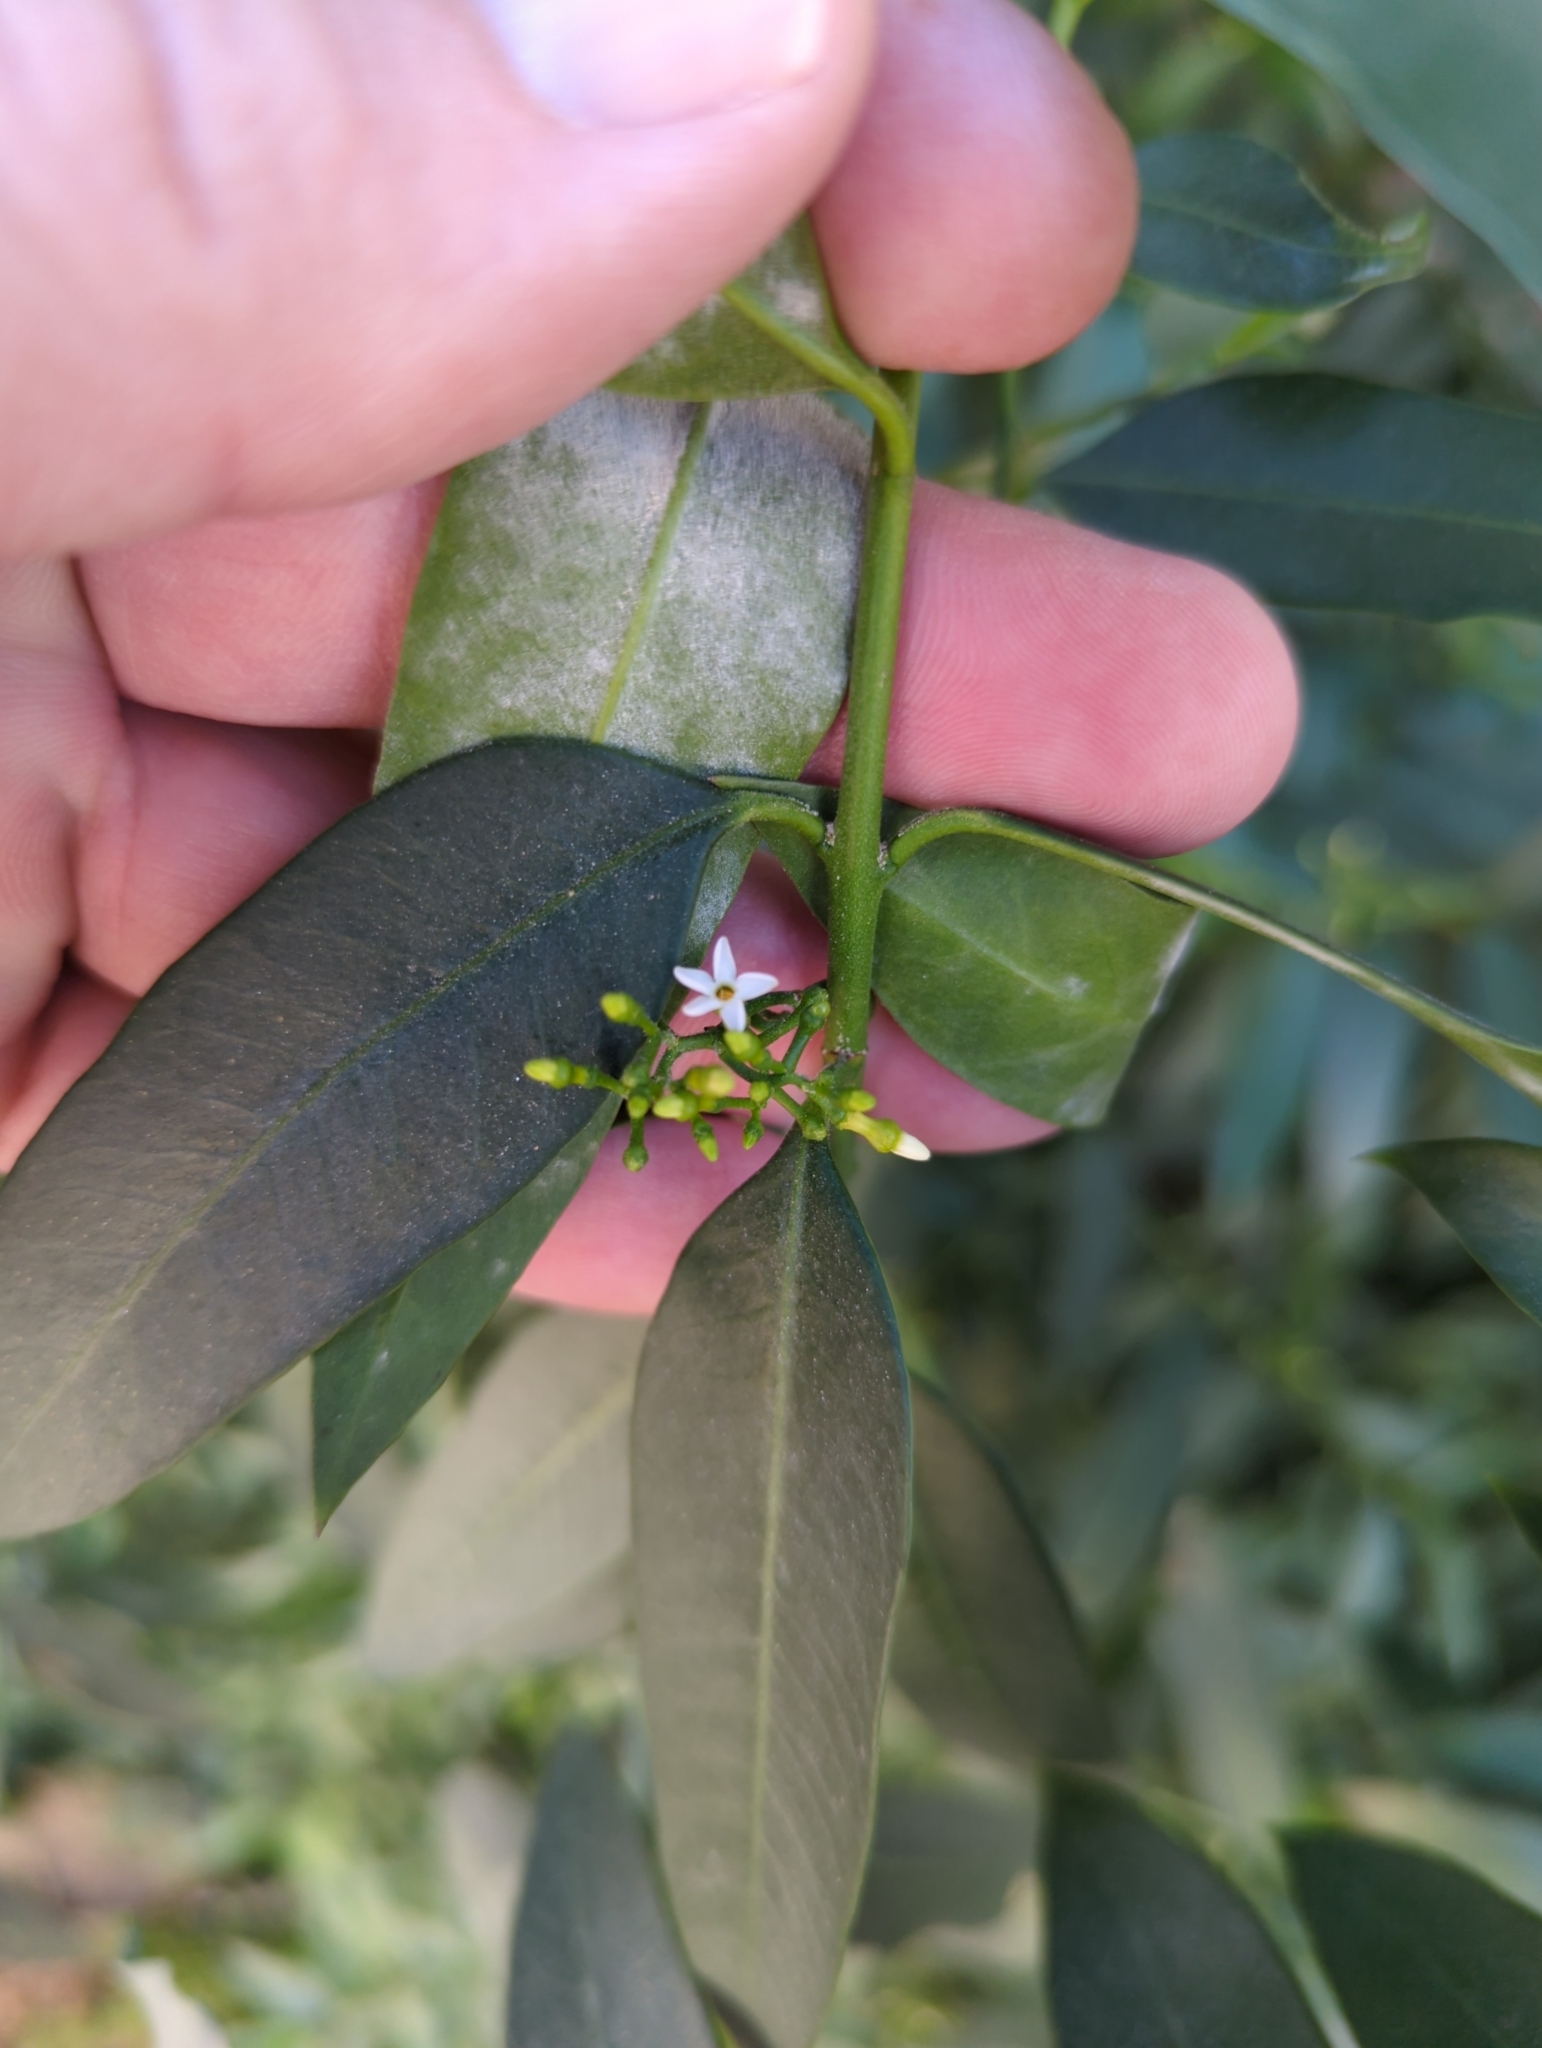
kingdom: Plantae
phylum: Tracheophyta
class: Magnoliopsida
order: Gentianales
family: Apocynaceae
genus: Vallesia
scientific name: Vallesia glabra
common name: Pearlberry
